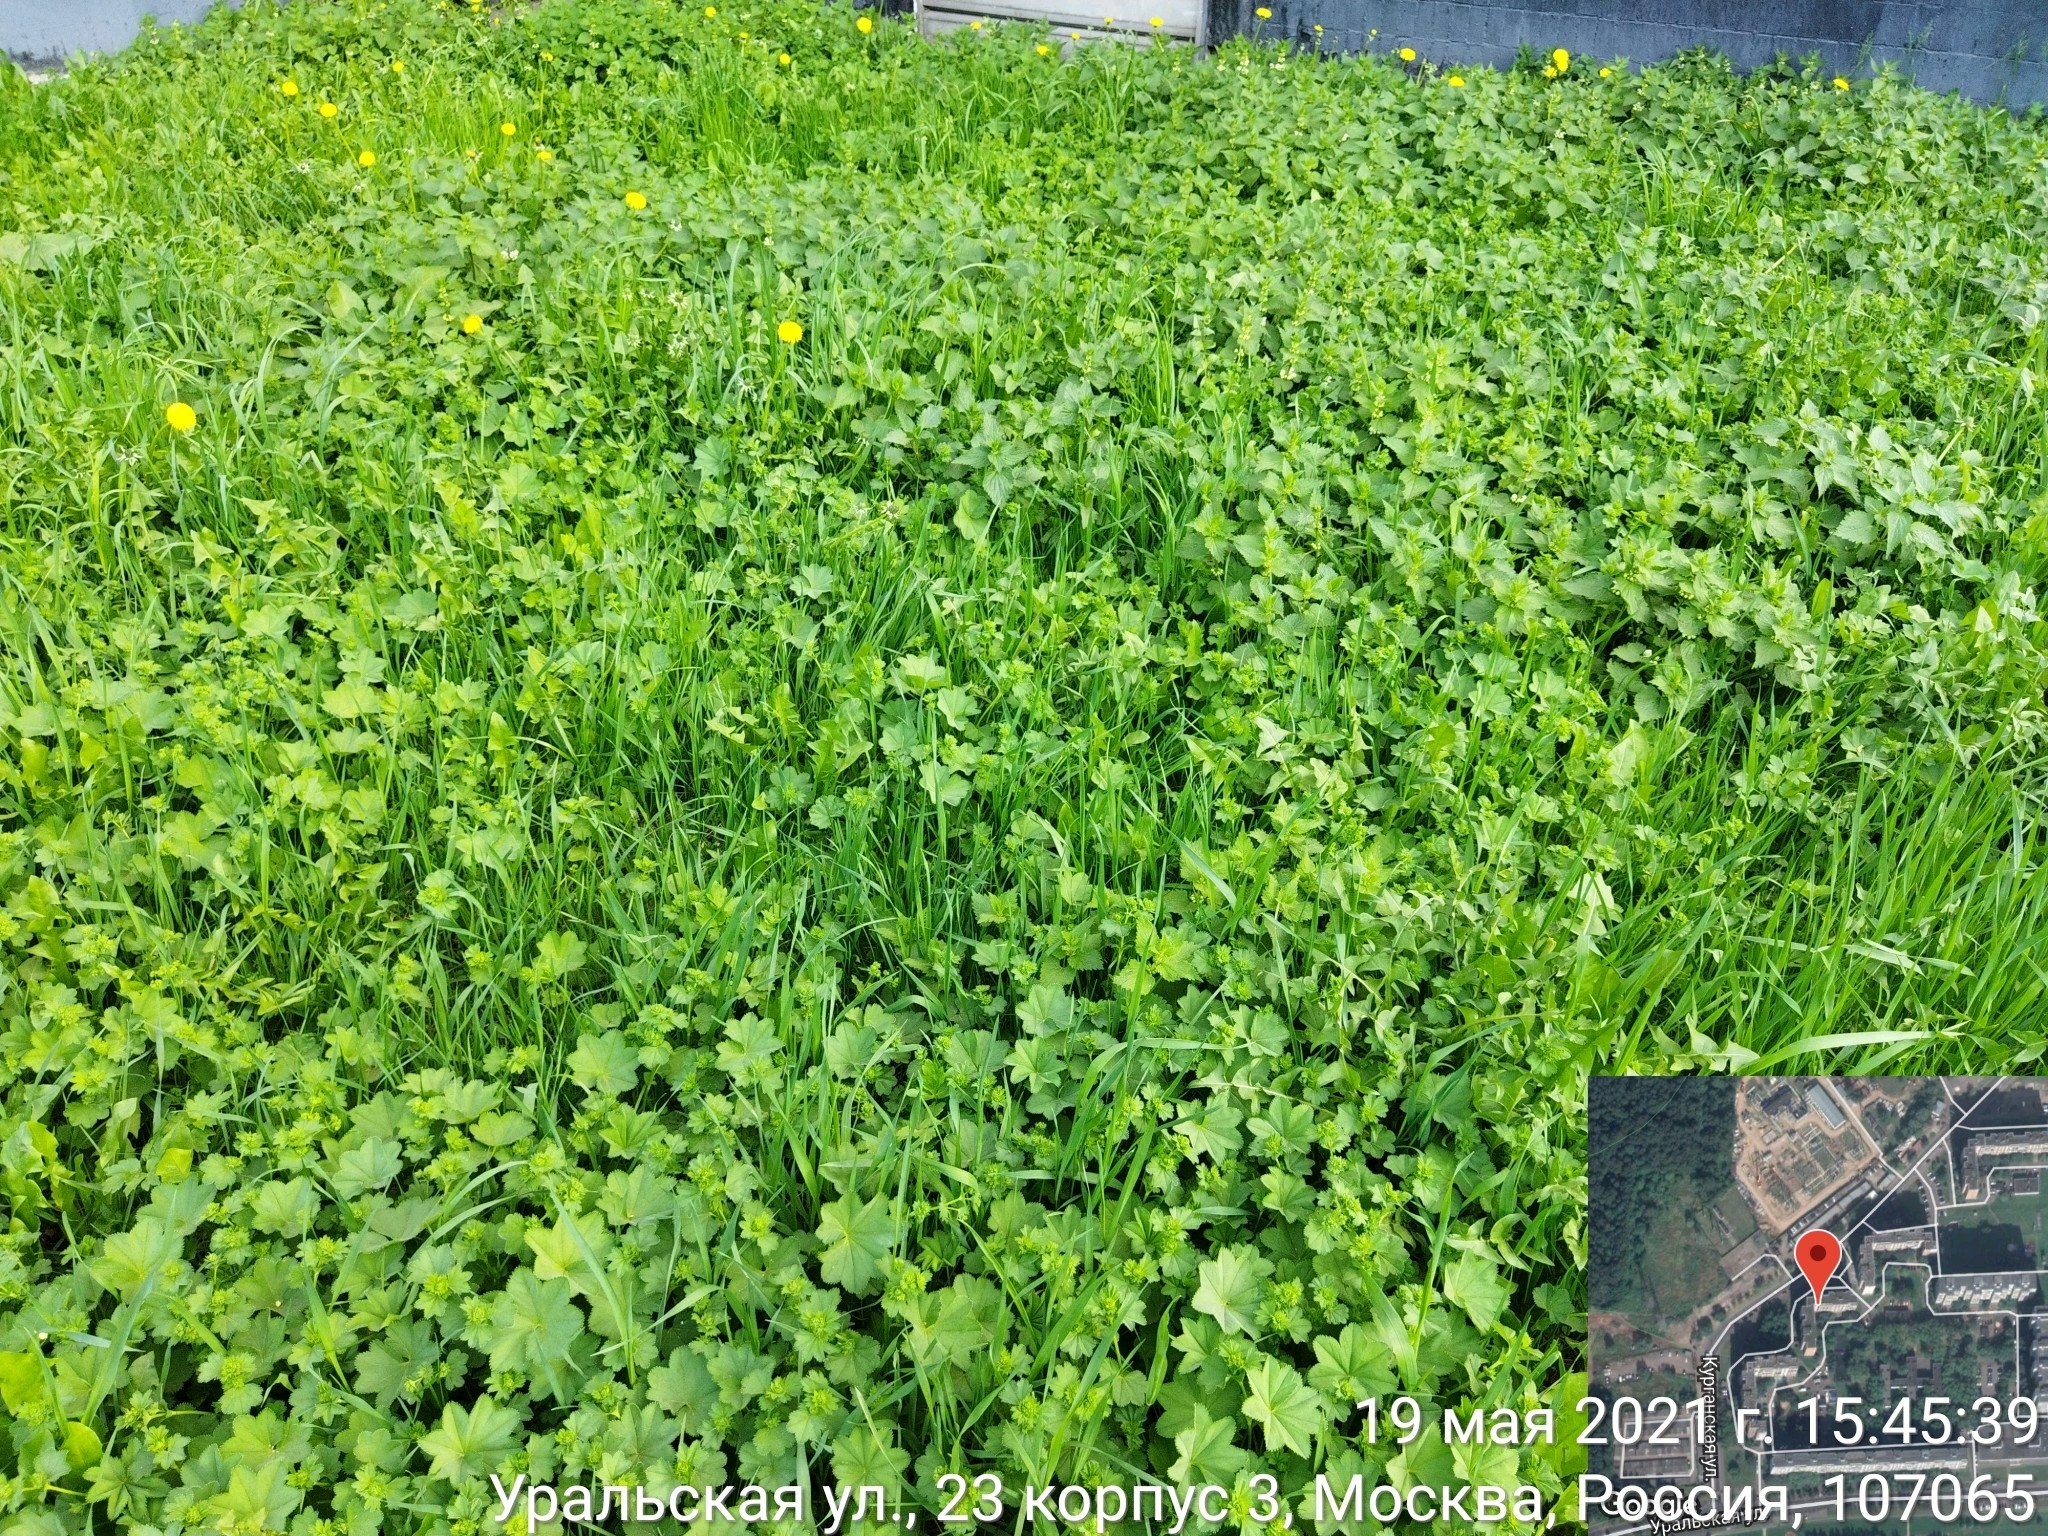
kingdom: Plantae
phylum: Tracheophyta
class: Magnoliopsida
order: Rosales
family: Rosaceae
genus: Alchemilla
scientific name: Alchemilla
